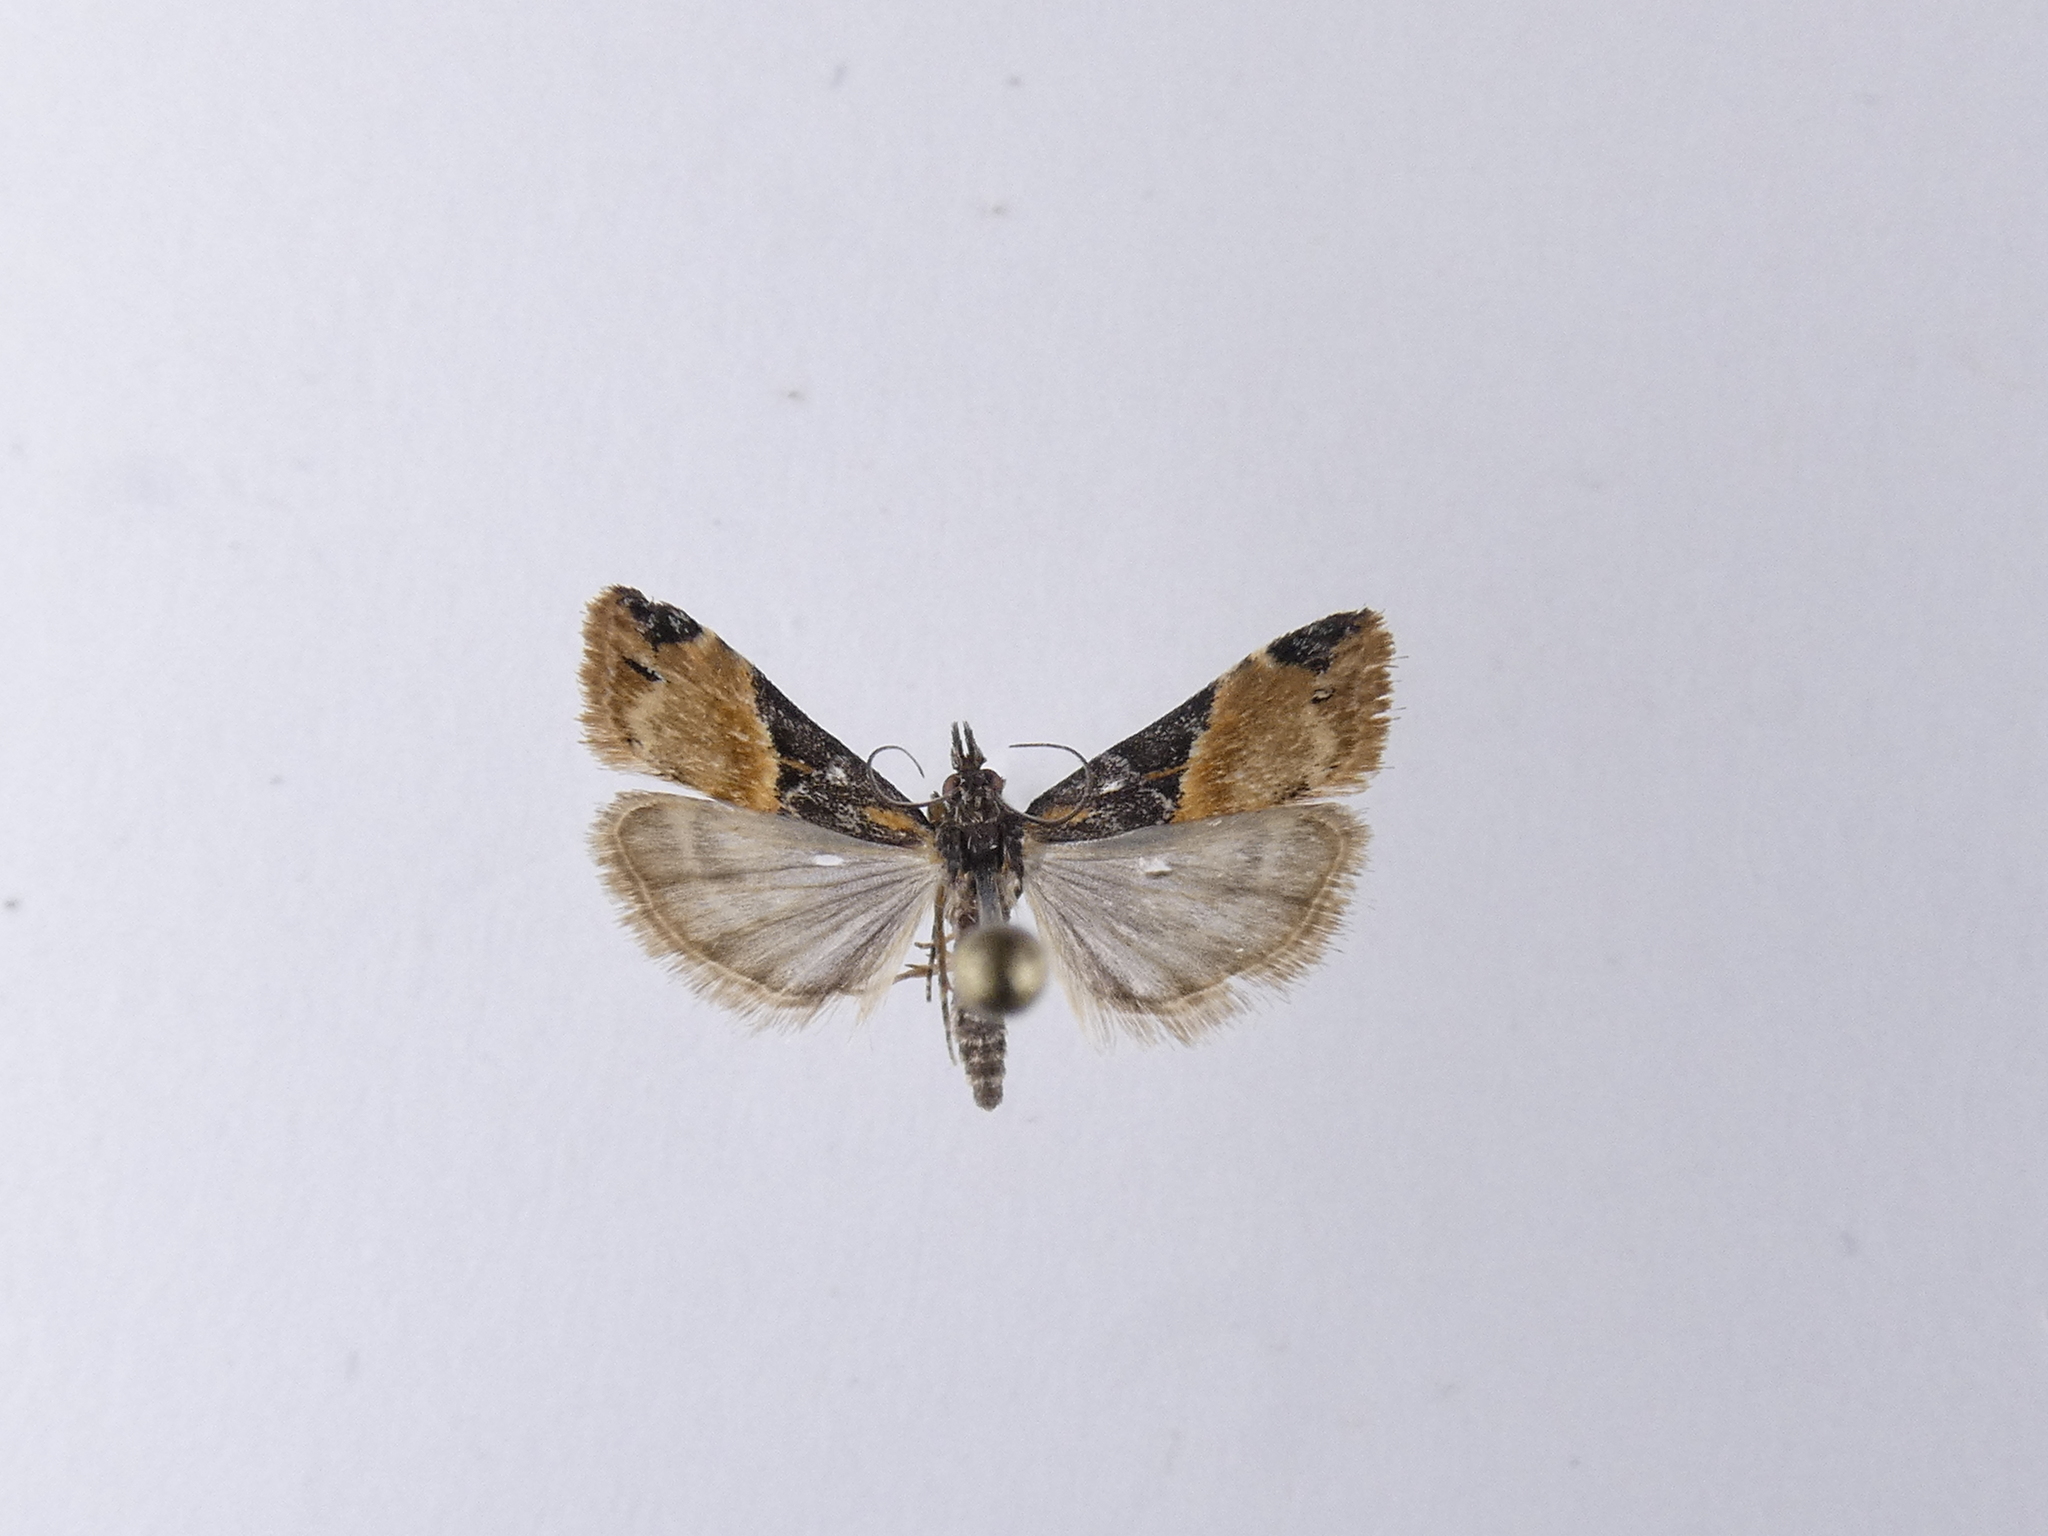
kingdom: Animalia
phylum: Arthropoda
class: Insecta
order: Lepidoptera
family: Crambidae
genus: Eudonia
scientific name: Eudonia chlamydota
